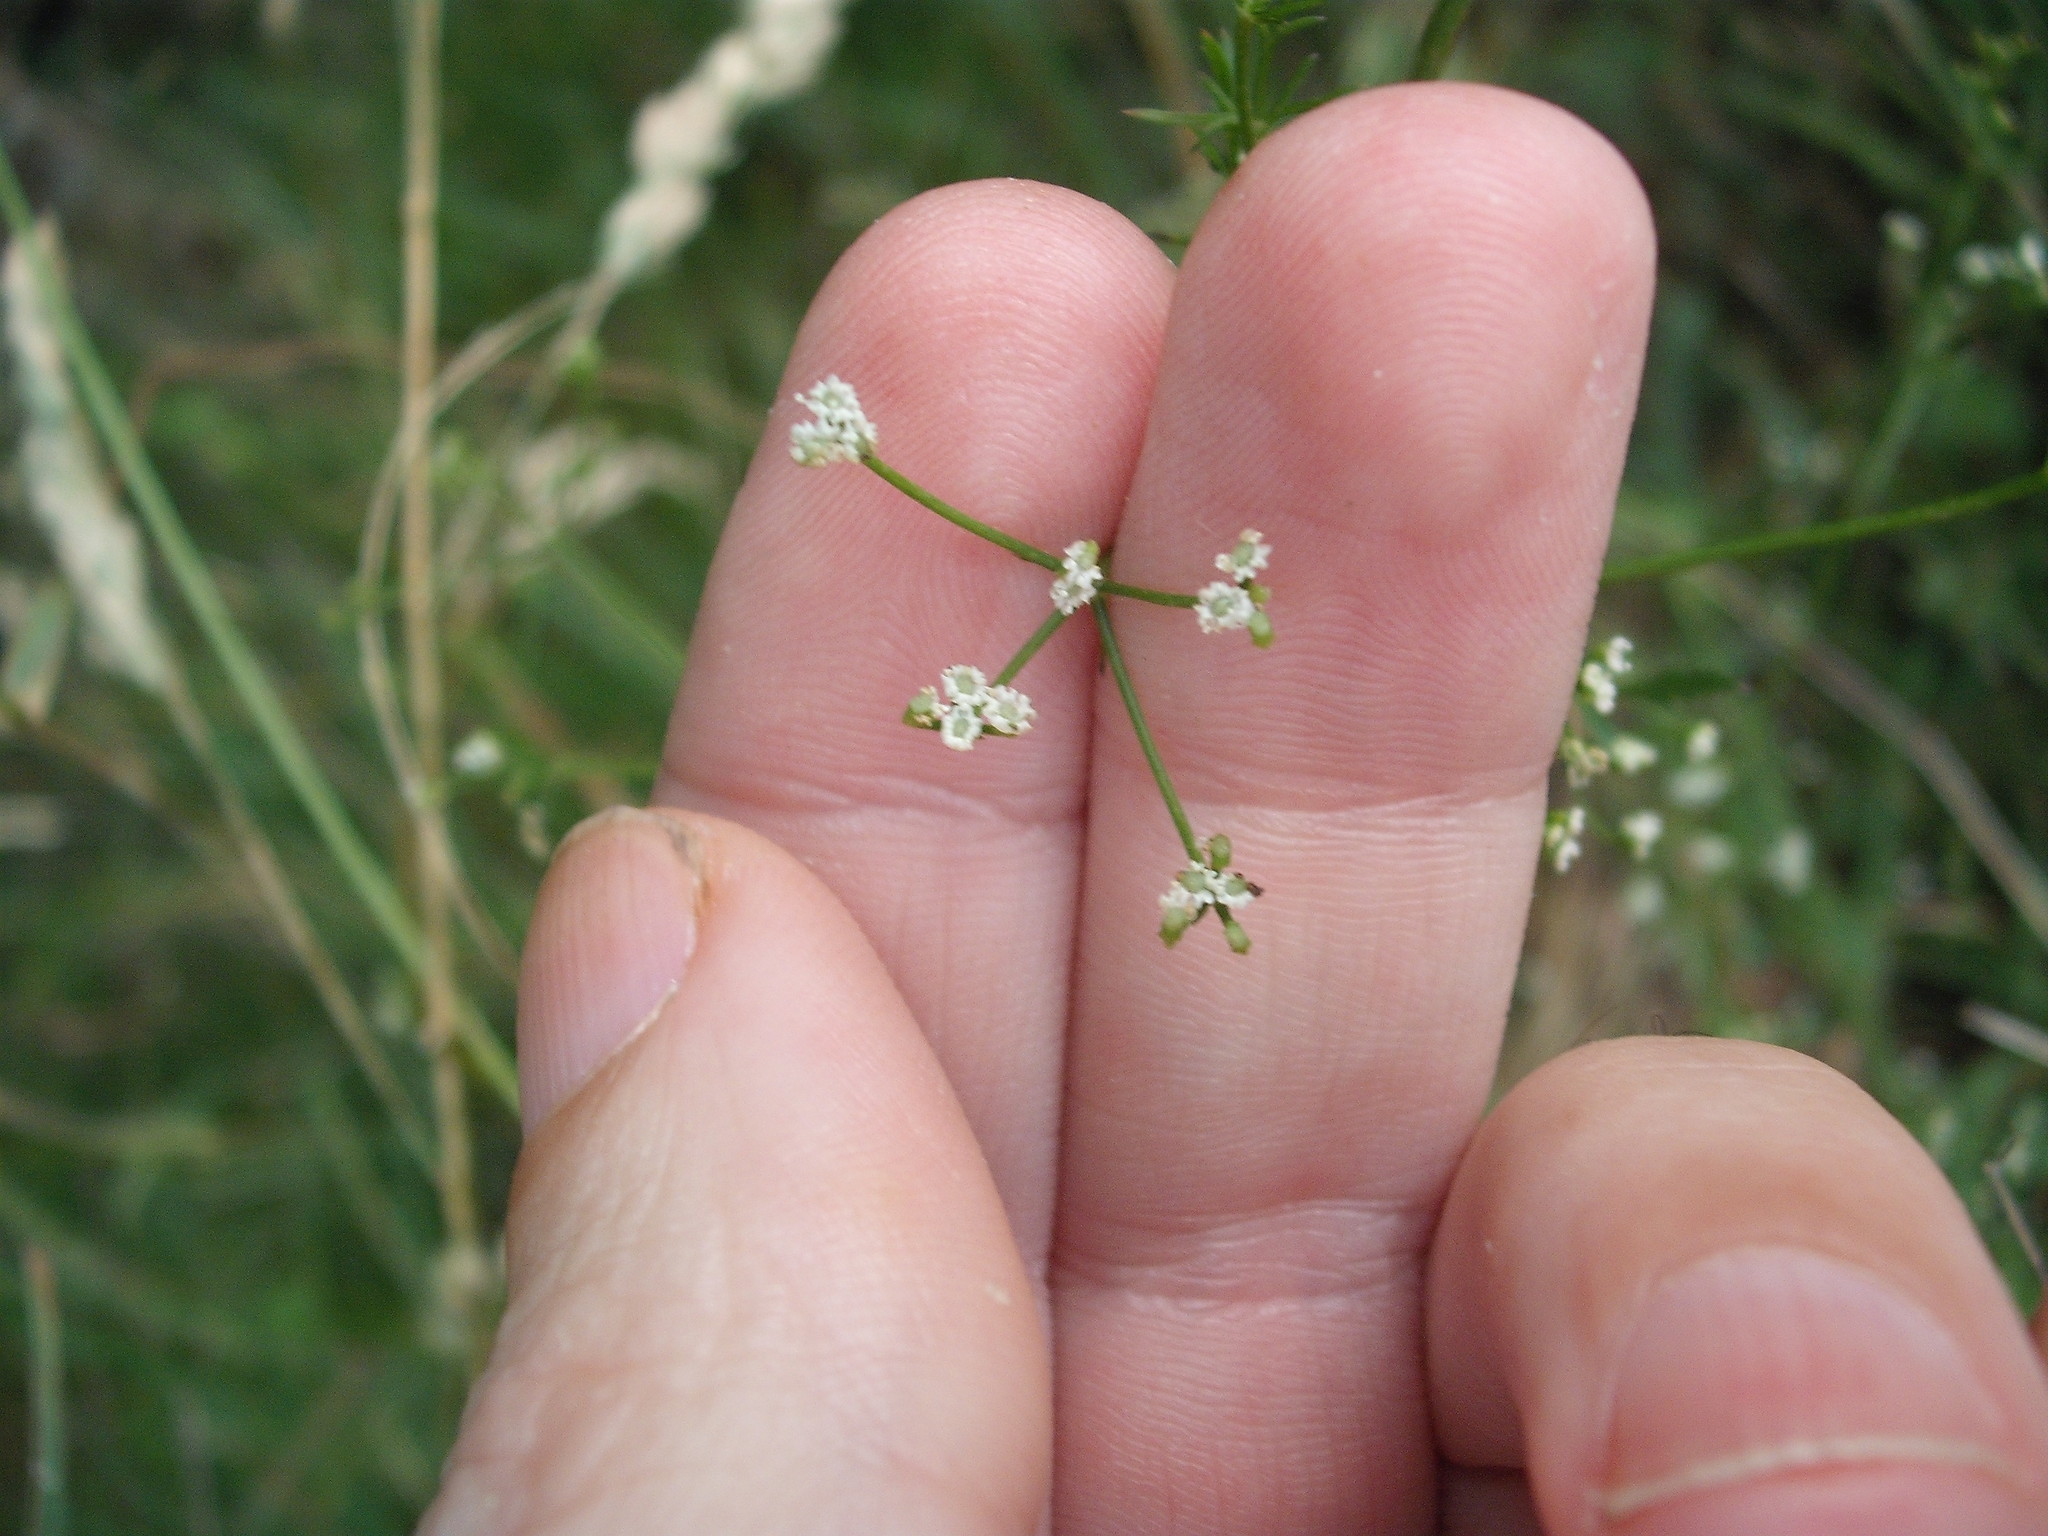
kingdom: Plantae
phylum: Tracheophyta
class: Magnoliopsida
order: Apiales
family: Apiaceae
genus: Sison
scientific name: Sison amomum
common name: Stone-parsley
